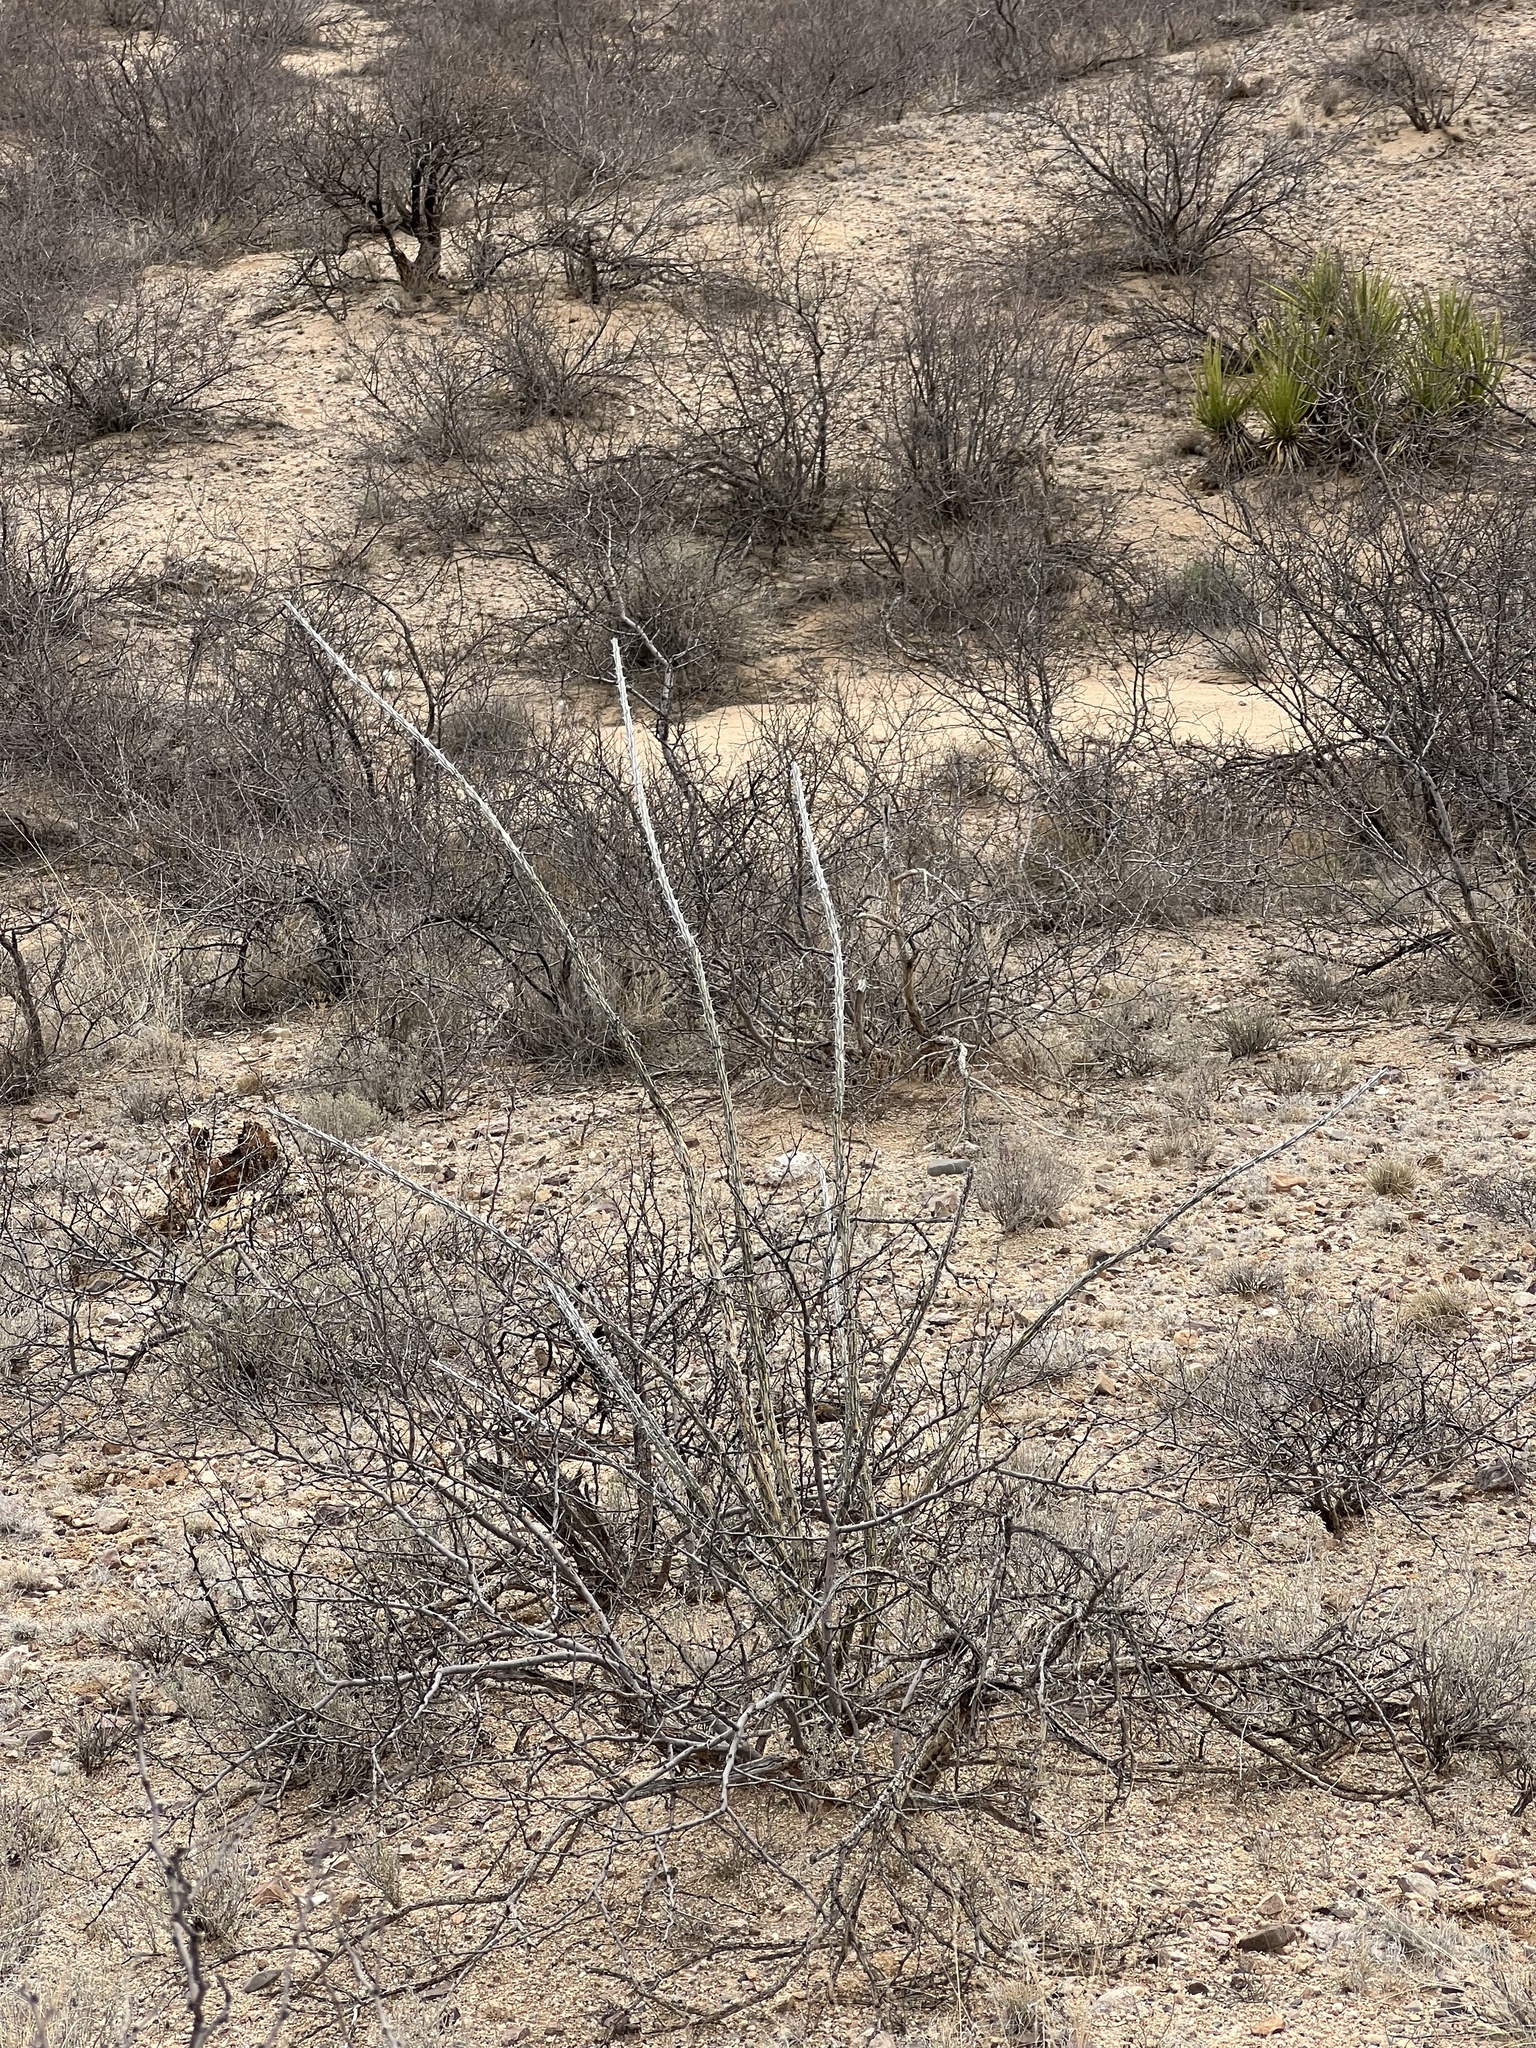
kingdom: Plantae
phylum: Tracheophyta
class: Magnoliopsida
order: Ericales
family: Fouquieriaceae
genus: Fouquieria
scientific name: Fouquieria splendens
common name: Vine-cactus
